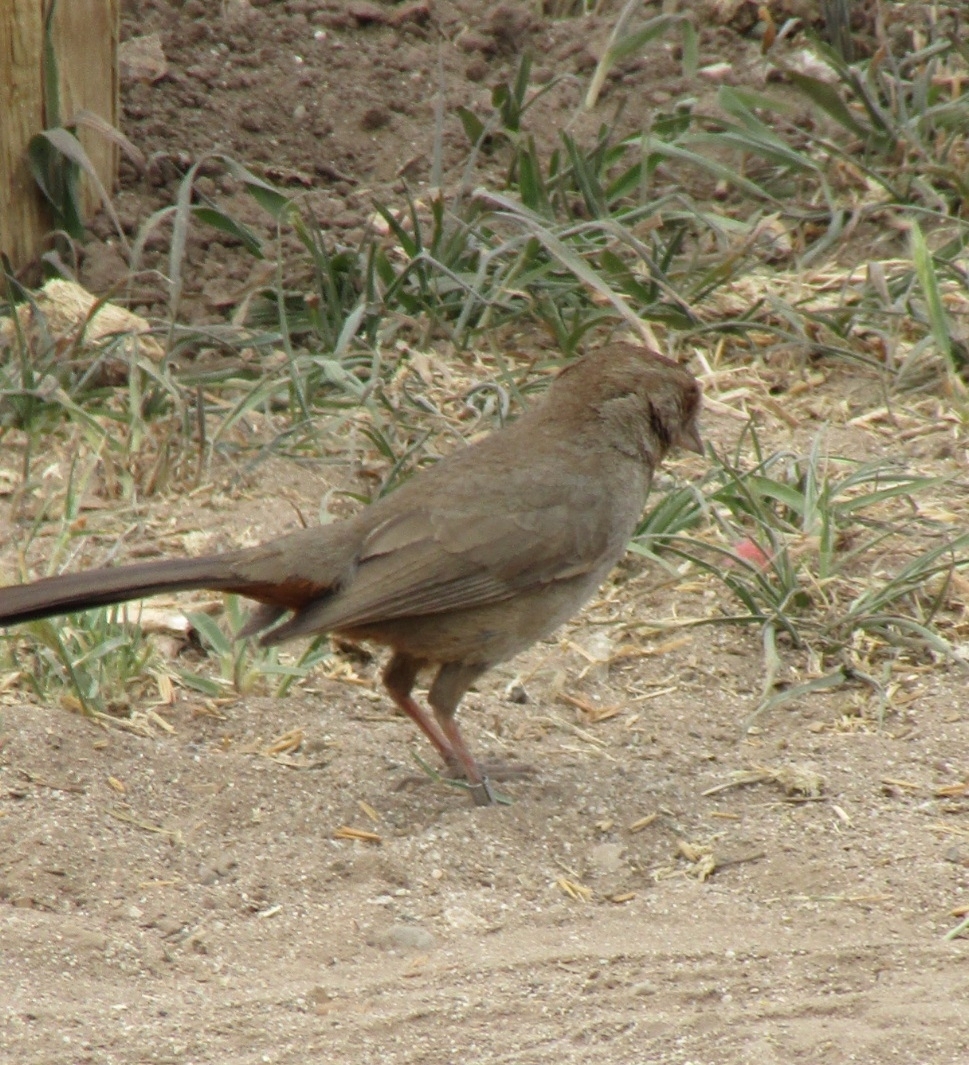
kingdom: Animalia
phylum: Chordata
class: Aves
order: Passeriformes
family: Passerellidae
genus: Melozone
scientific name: Melozone crissalis
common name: California towhee
